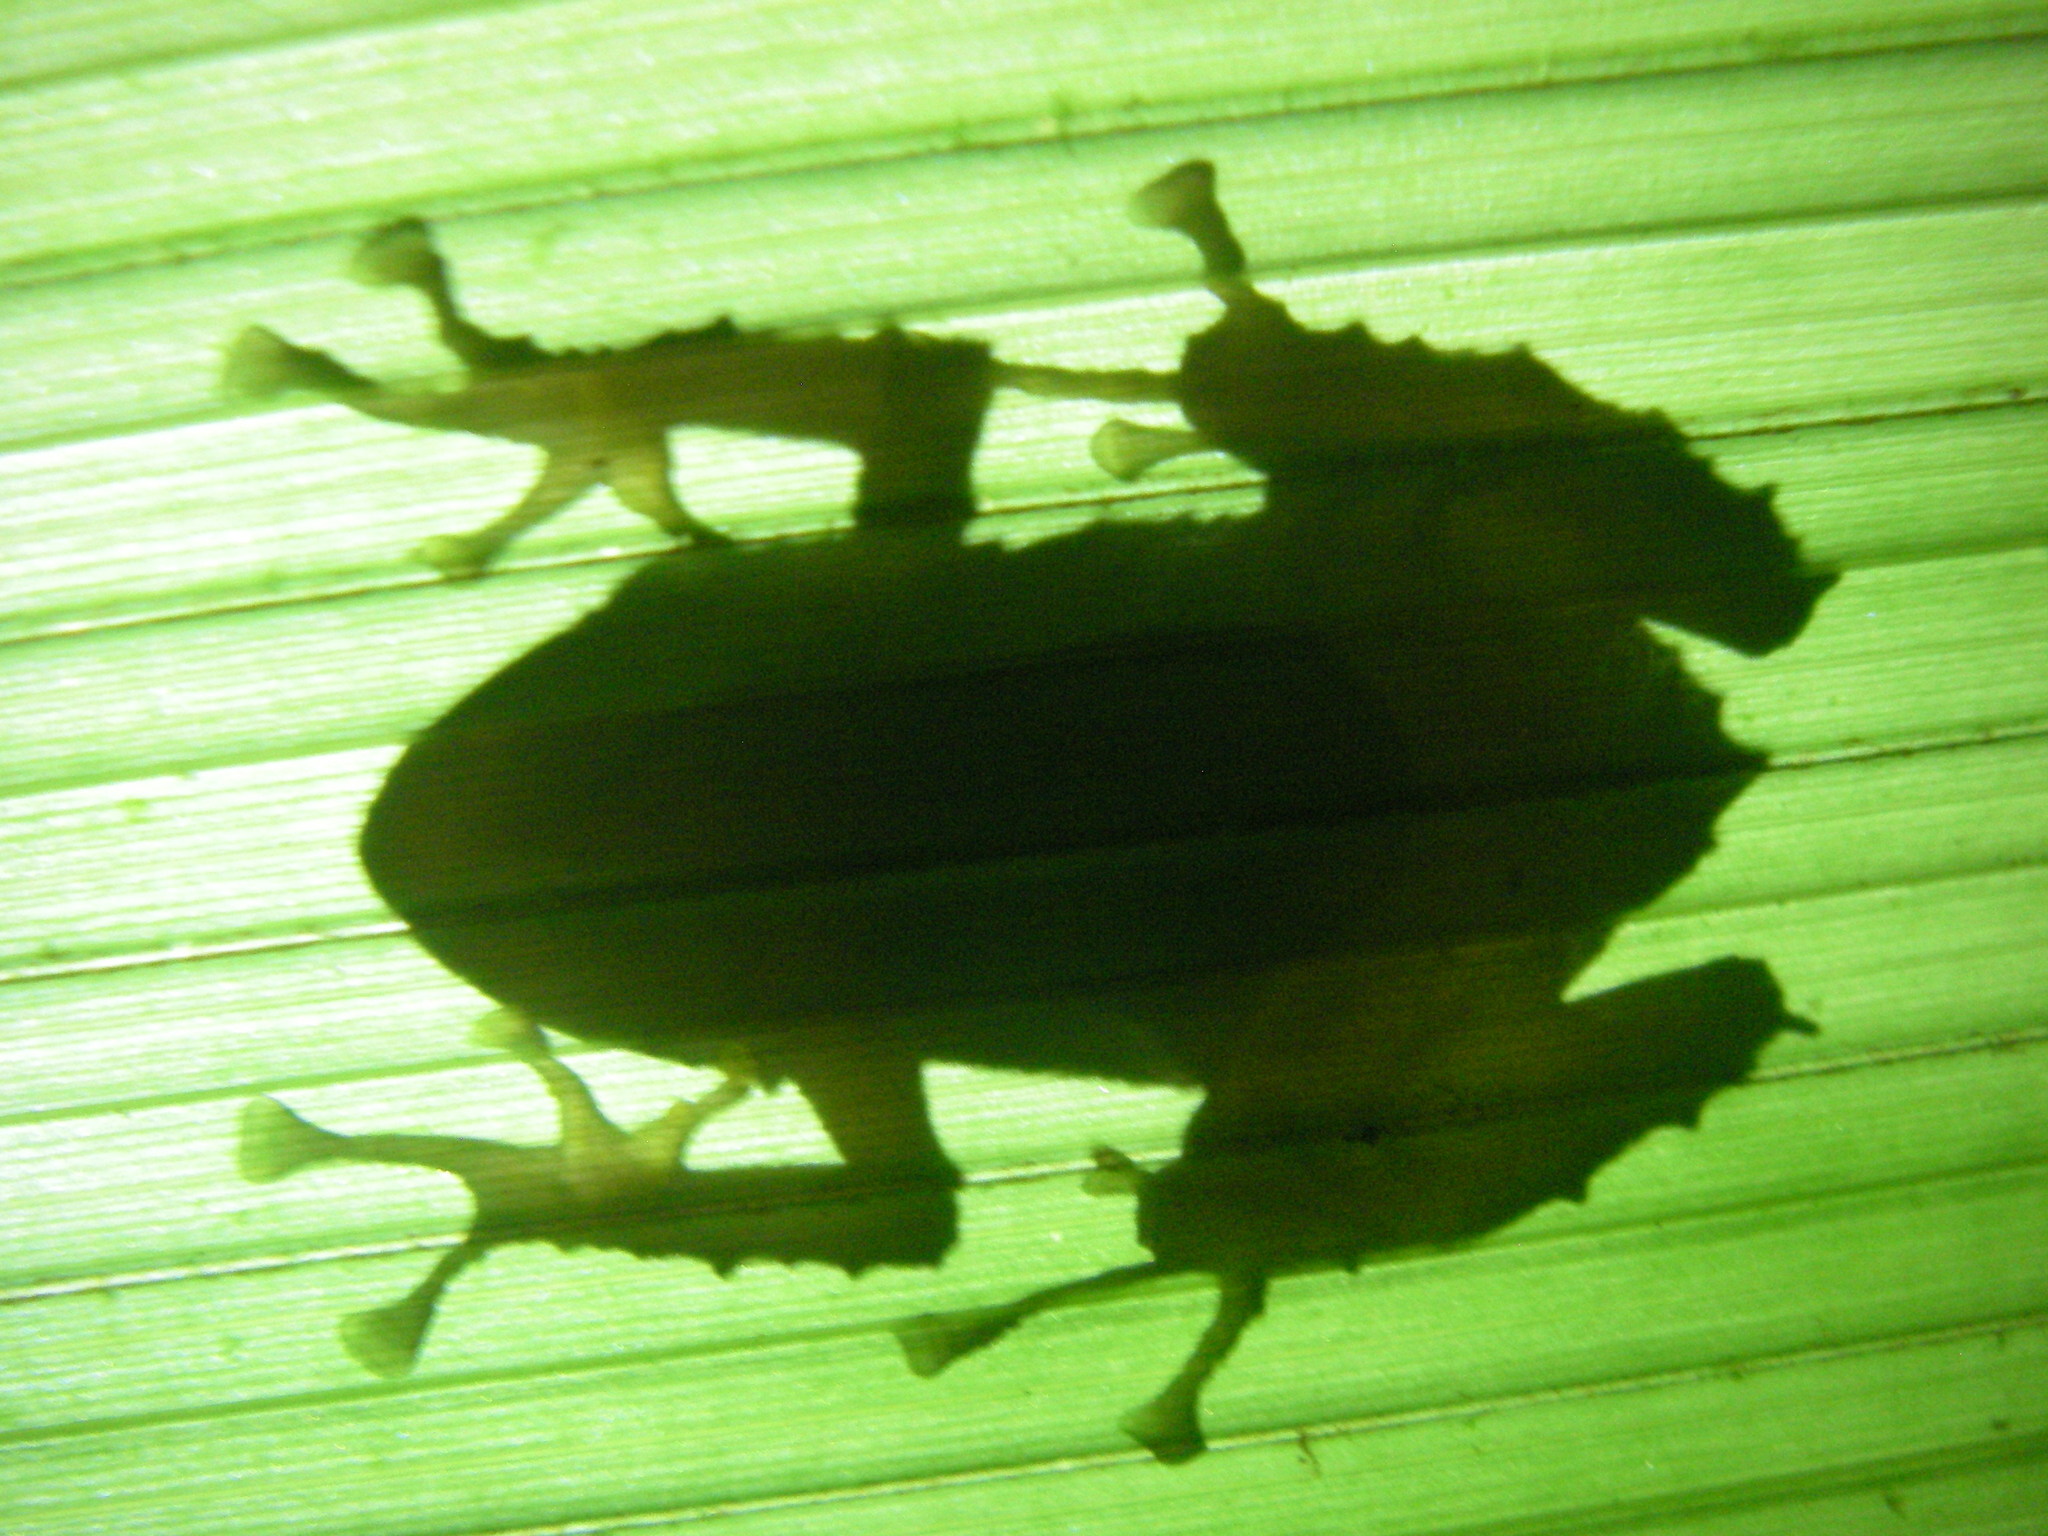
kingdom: Animalia
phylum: Chordata
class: Amphibia
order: Anura
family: Craugastoridae
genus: Pristimantis
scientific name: Pristimantis cruentus
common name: Chiriqui robber frog
